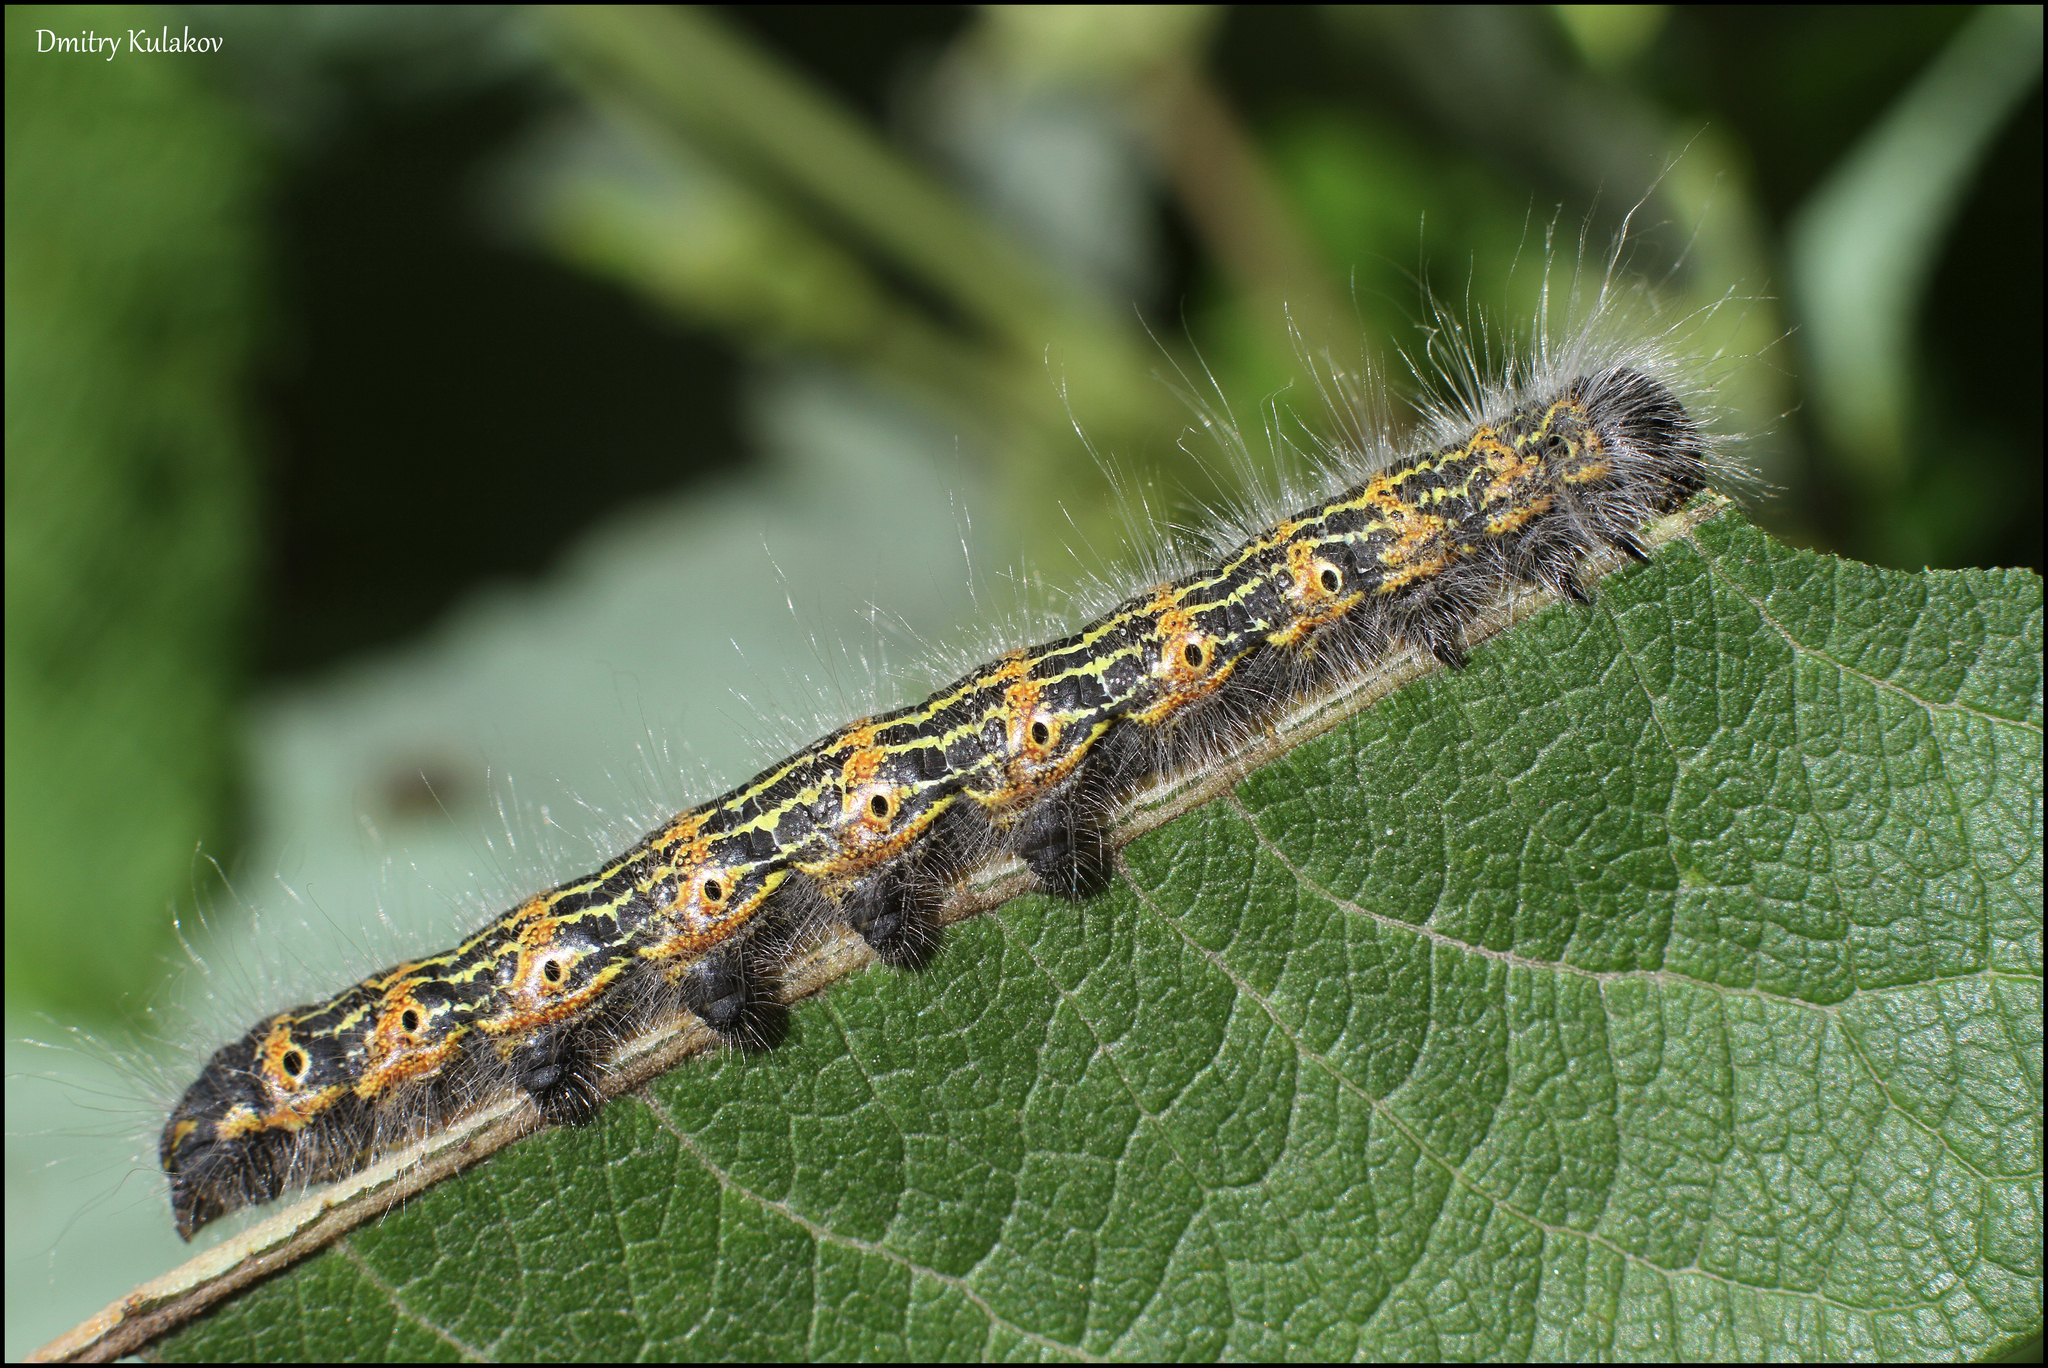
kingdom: Animalia
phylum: Arthropoda
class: Insecta
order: Lepidoptera
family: Notodontidae
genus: Phalera
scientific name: Phalera bucephala
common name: Buff-tip
